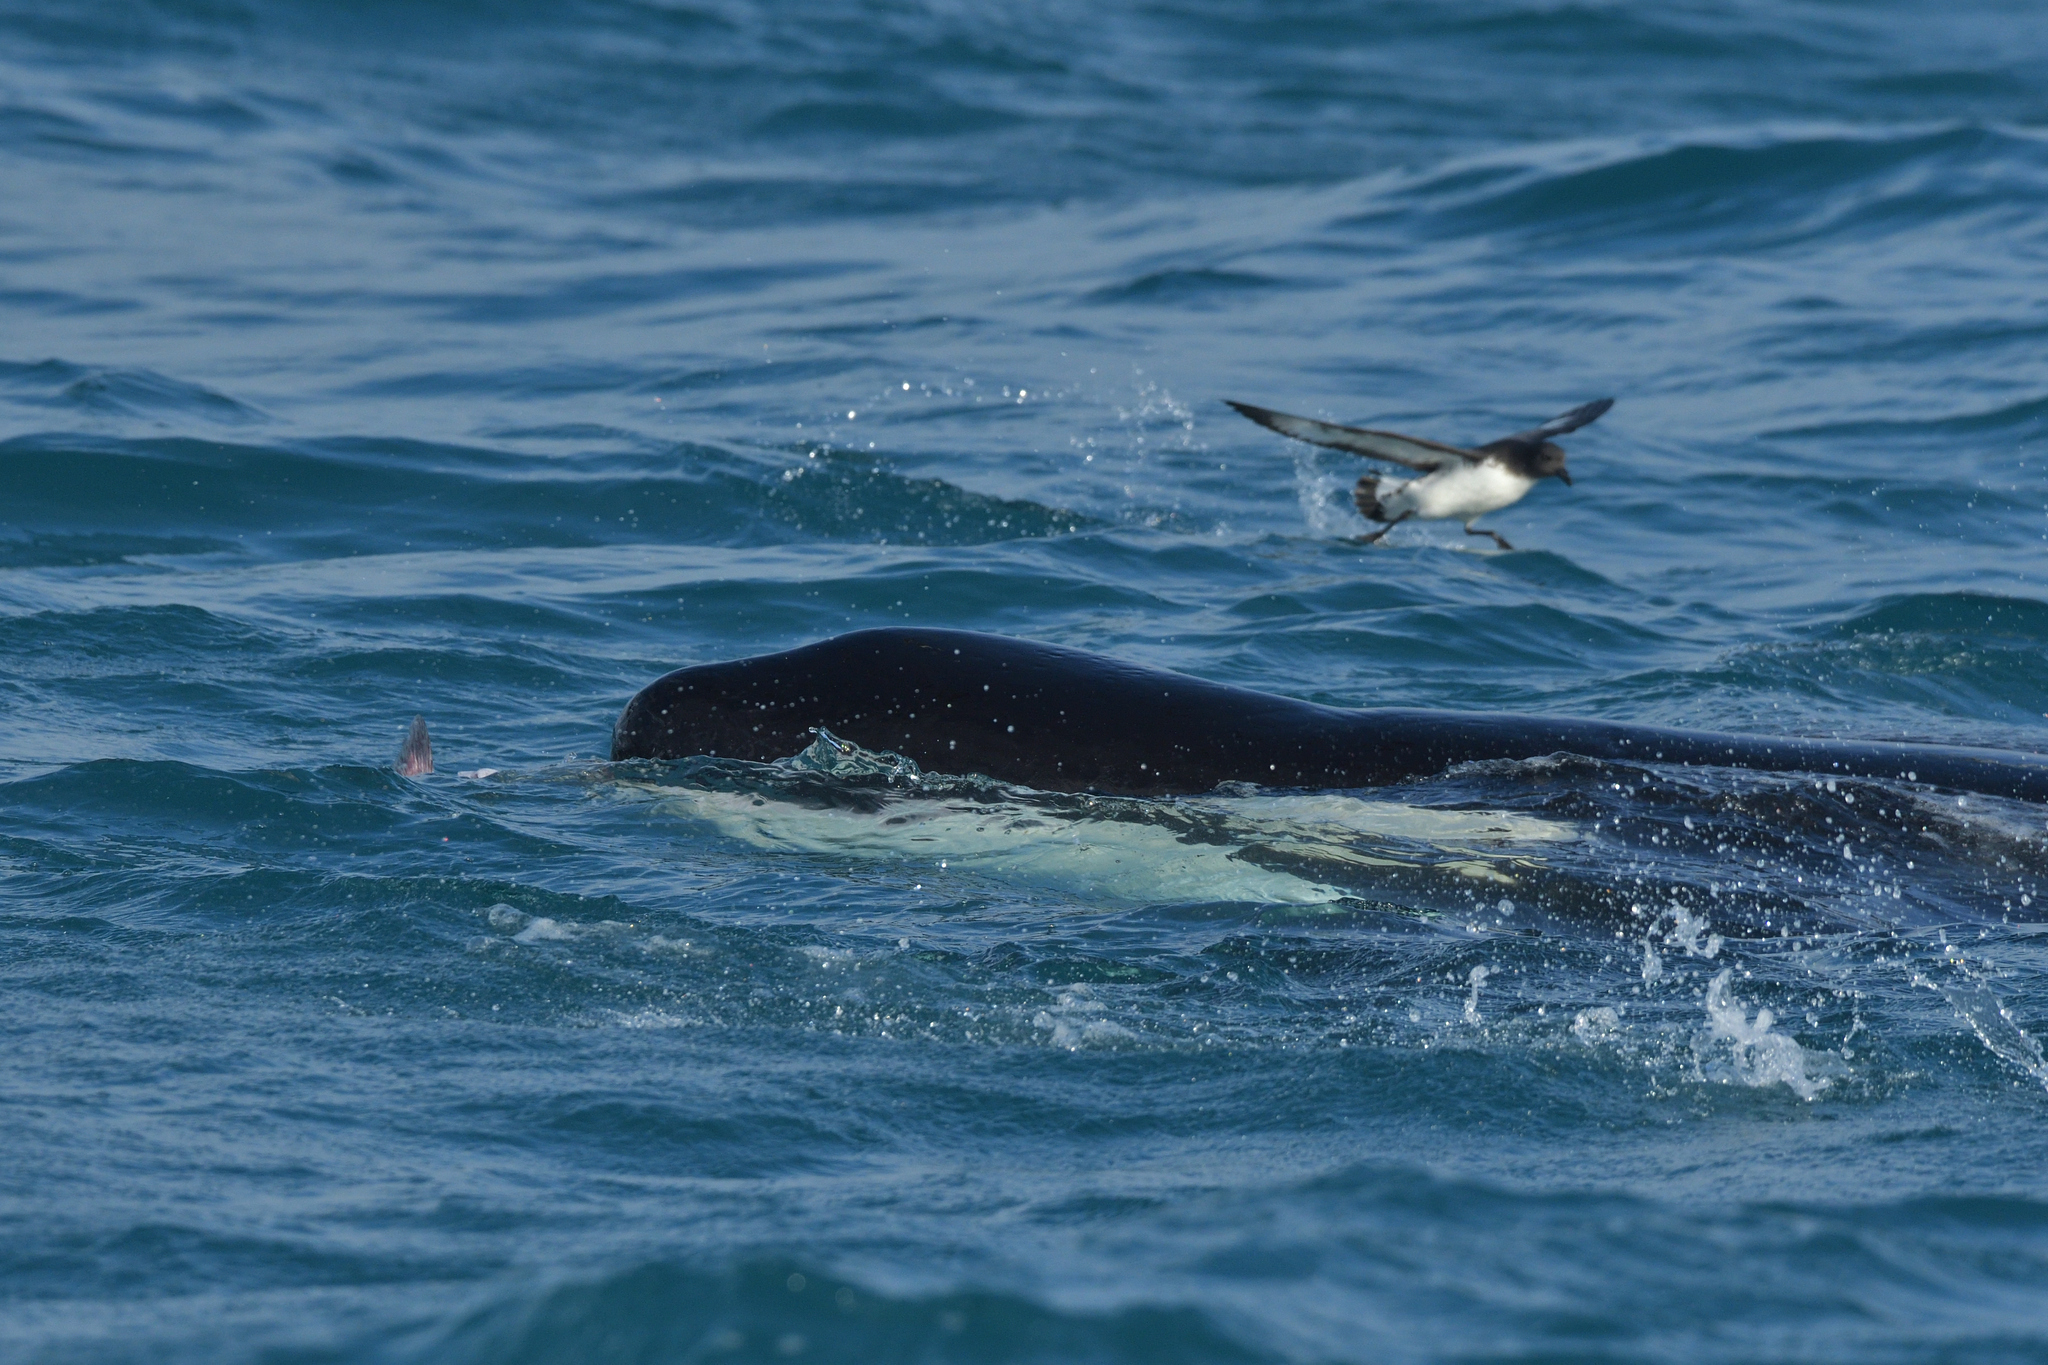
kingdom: Animalia
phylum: Chordata
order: Perciformes
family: Polyprionidae
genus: Polyprion
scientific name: Polyprion oxygeneios
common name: Hapuka
